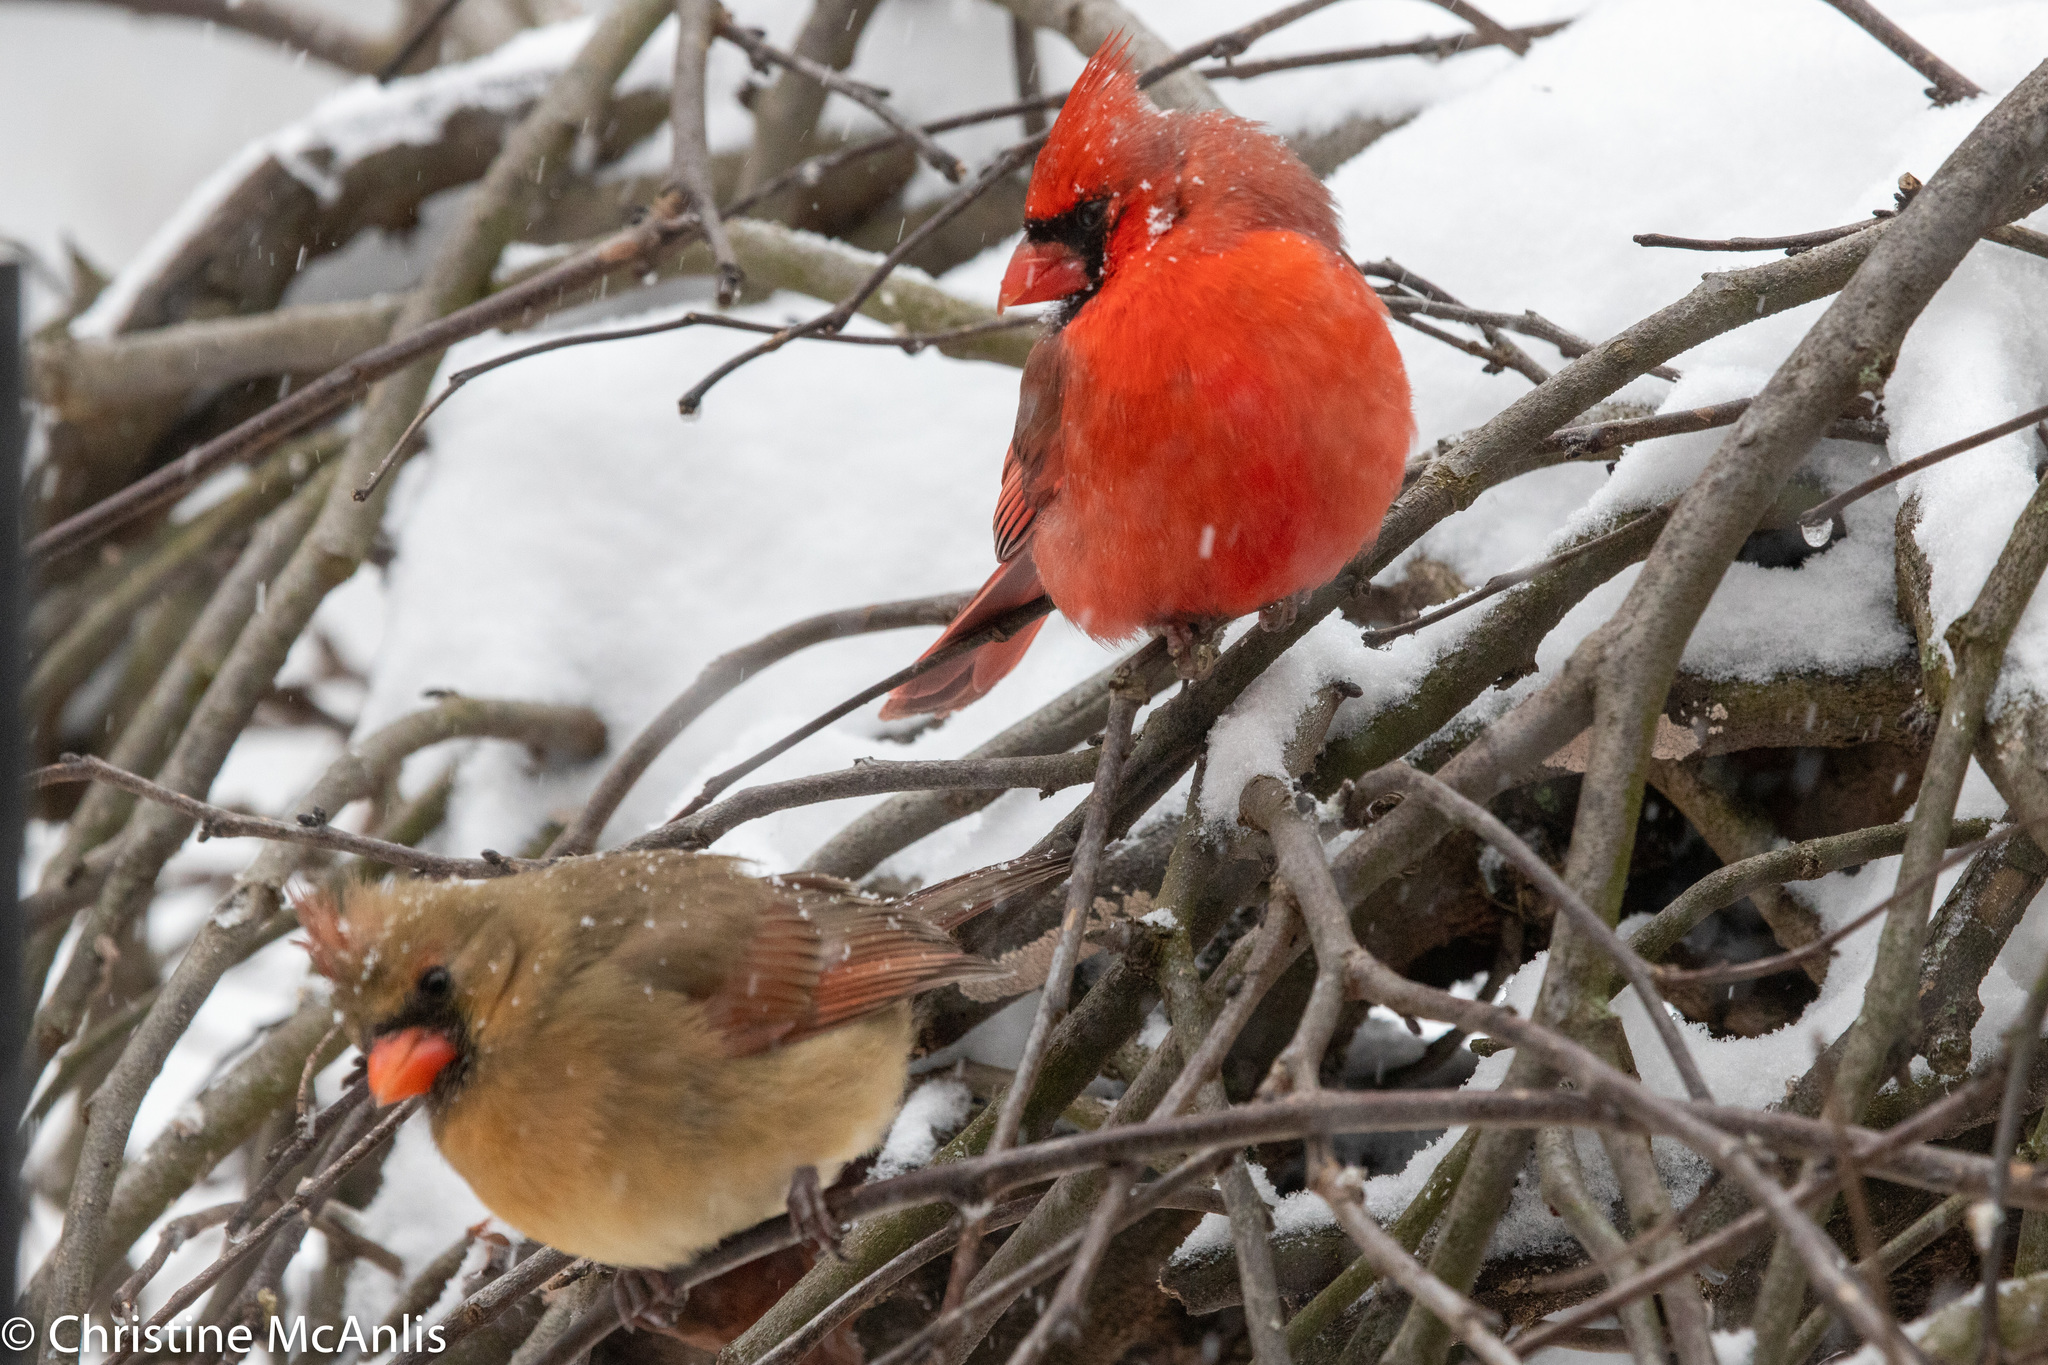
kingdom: Animalia
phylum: Chordata
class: Aves
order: Passeriformes
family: Cardinalidae
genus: Cardinalis
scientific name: Cardinalis cardinalis
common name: Northern cardinal
